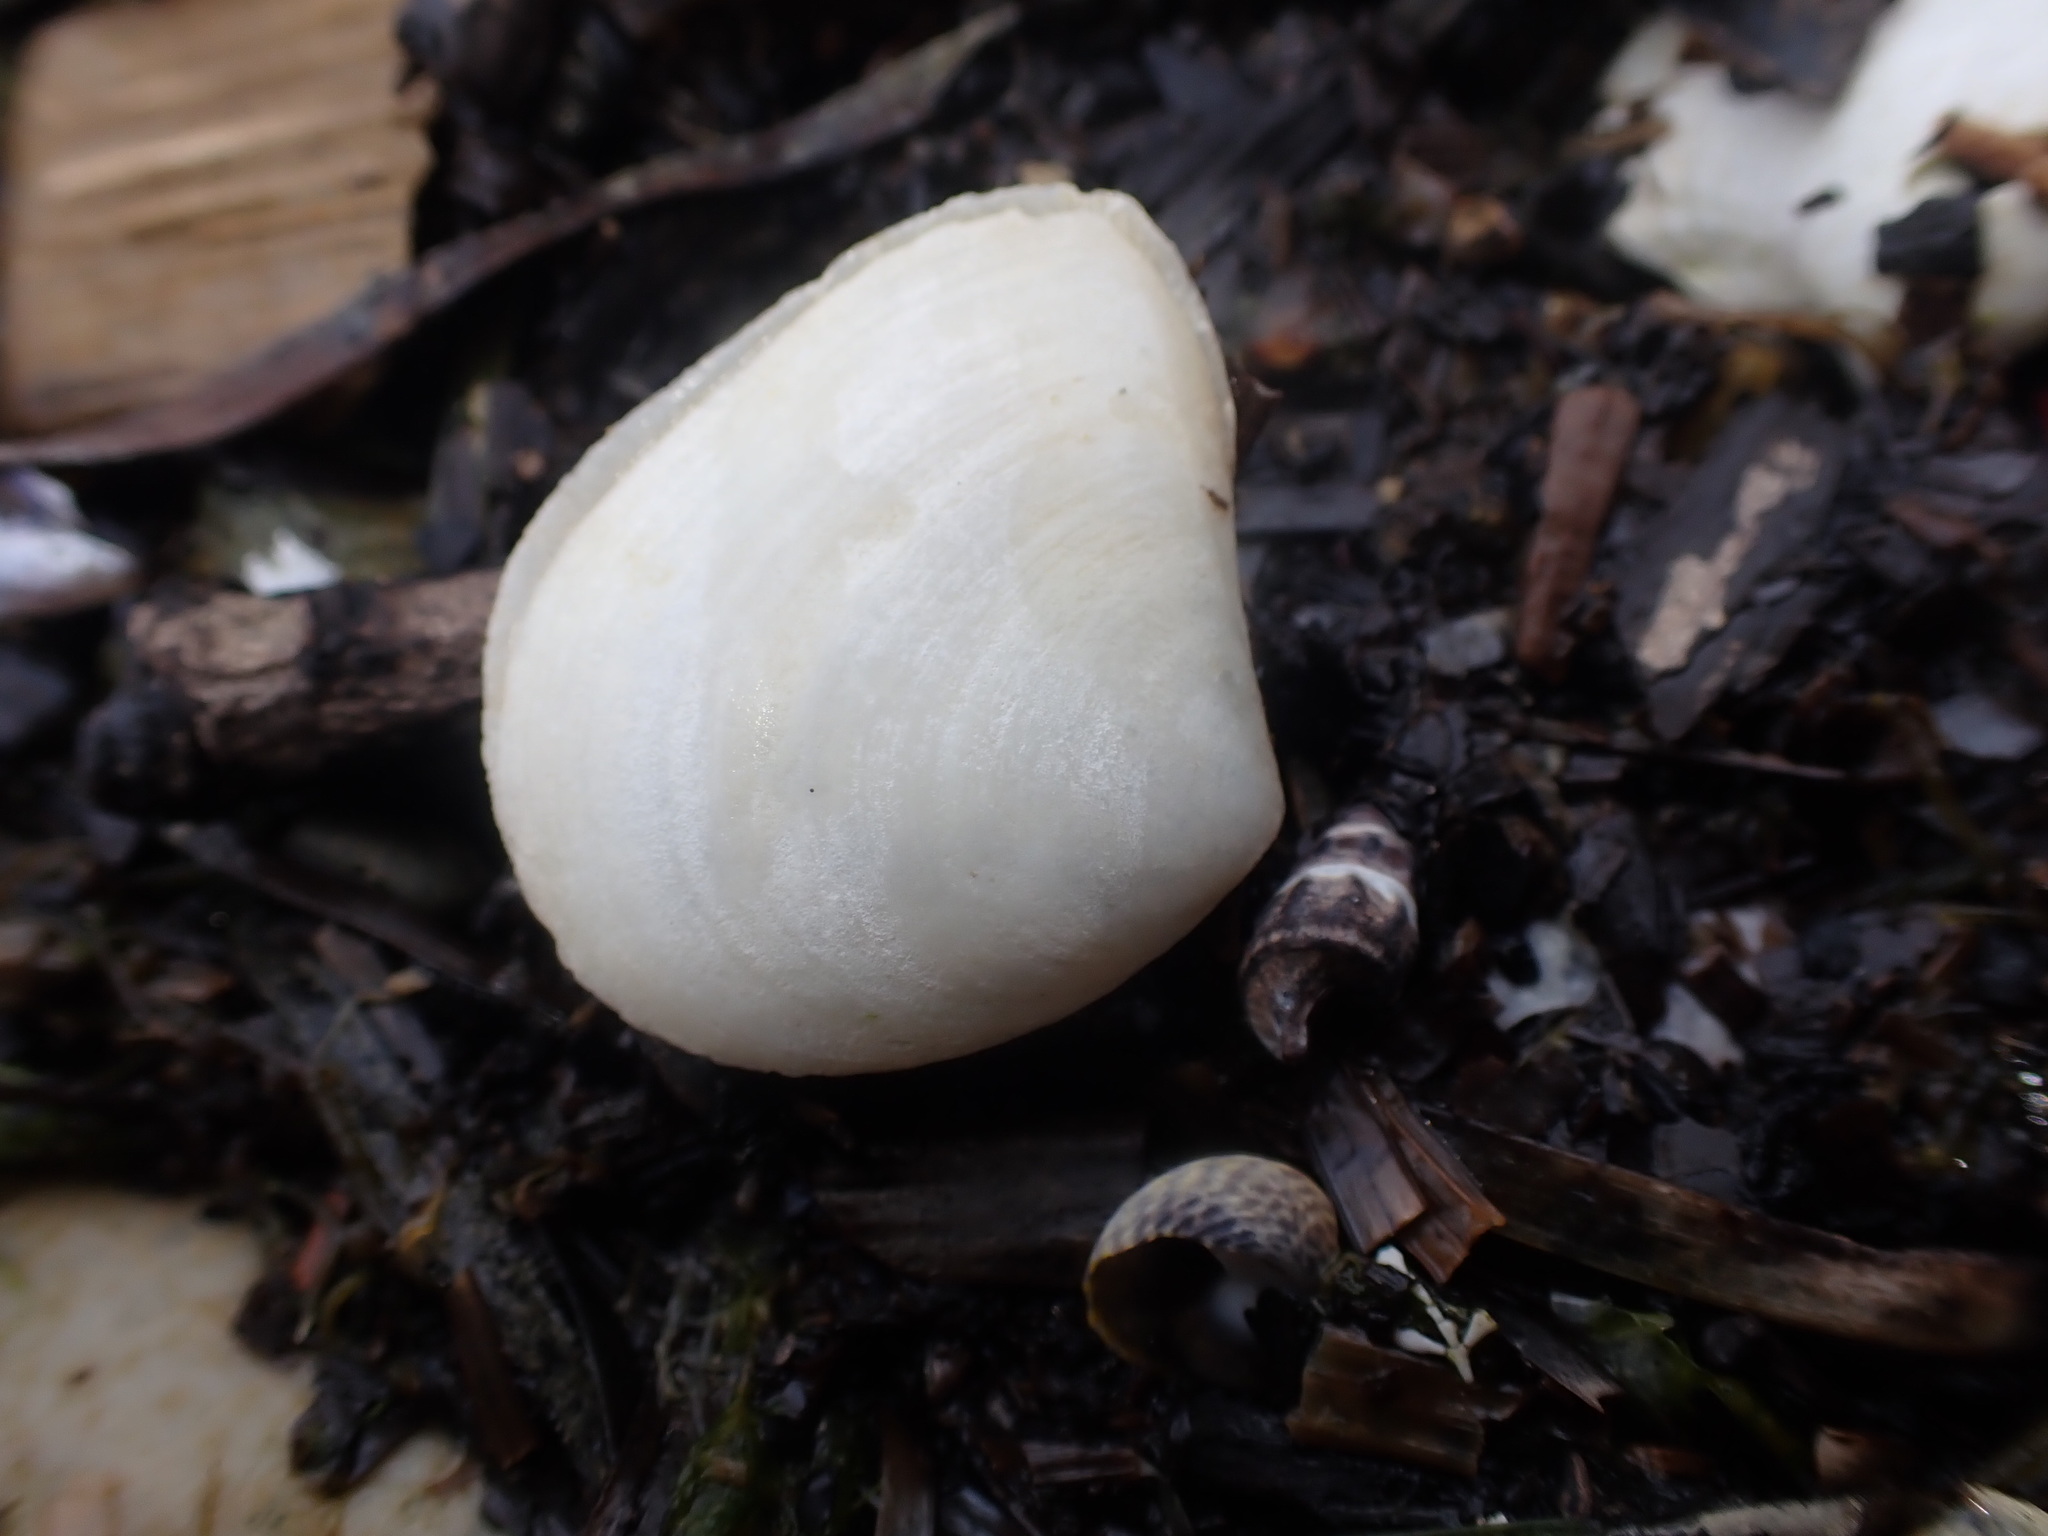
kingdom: Animalia
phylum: Mollusca
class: Bivalvia
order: Cardiida
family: Tellinidae
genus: Macomona
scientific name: Macomona liliana
